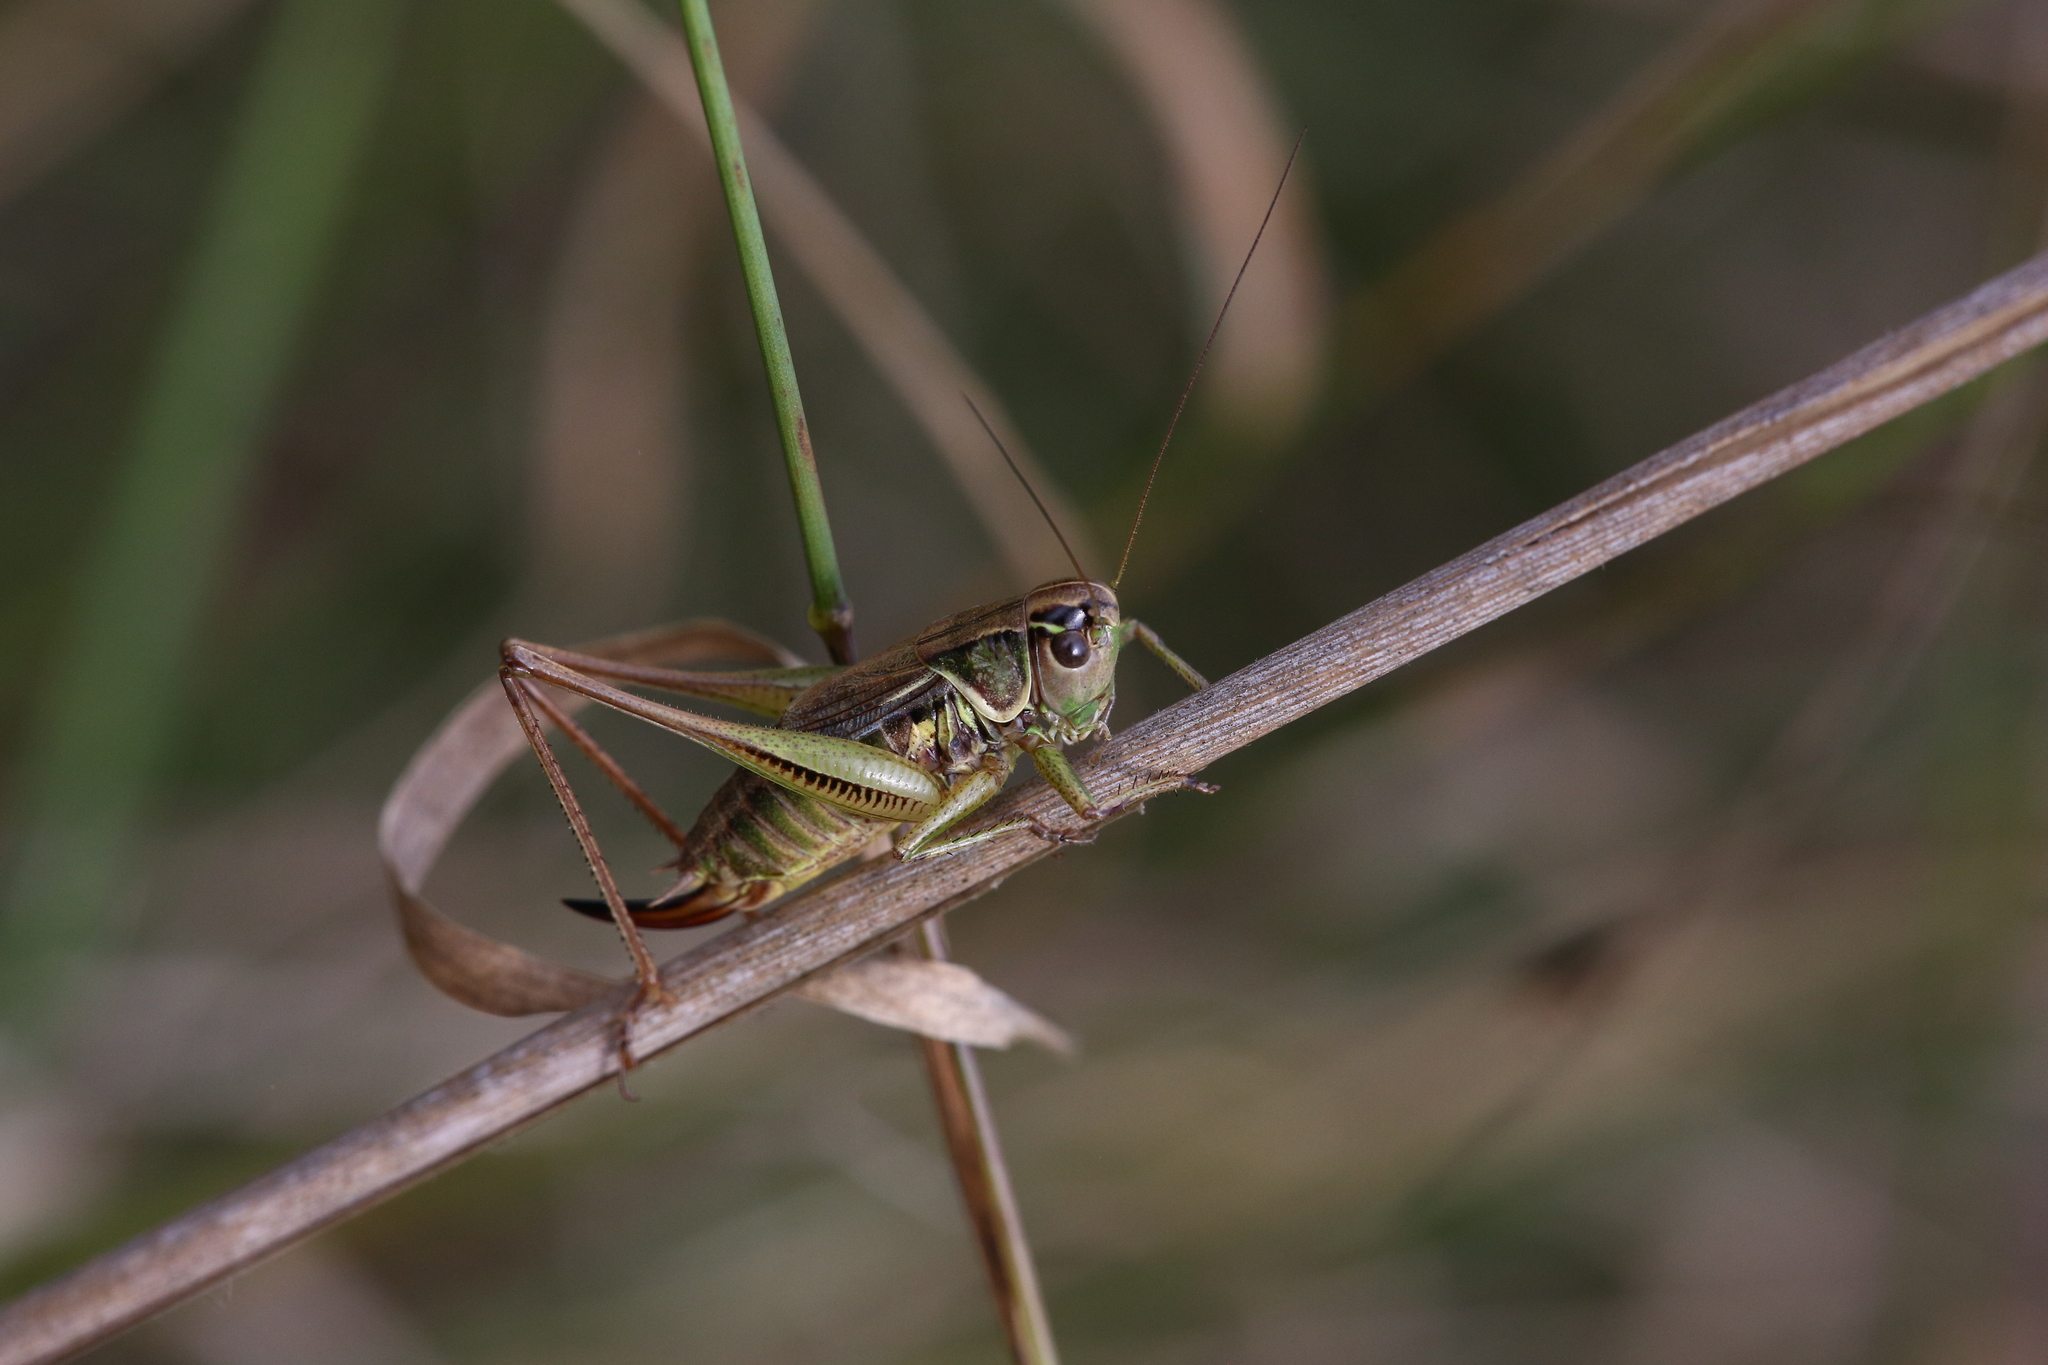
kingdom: Animalia
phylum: Arthropoda
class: Insecta
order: Orthoptera
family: Tettigoniidae
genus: Roeseliana
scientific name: Roeseliana roeselii
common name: Roesel's bush cricket
